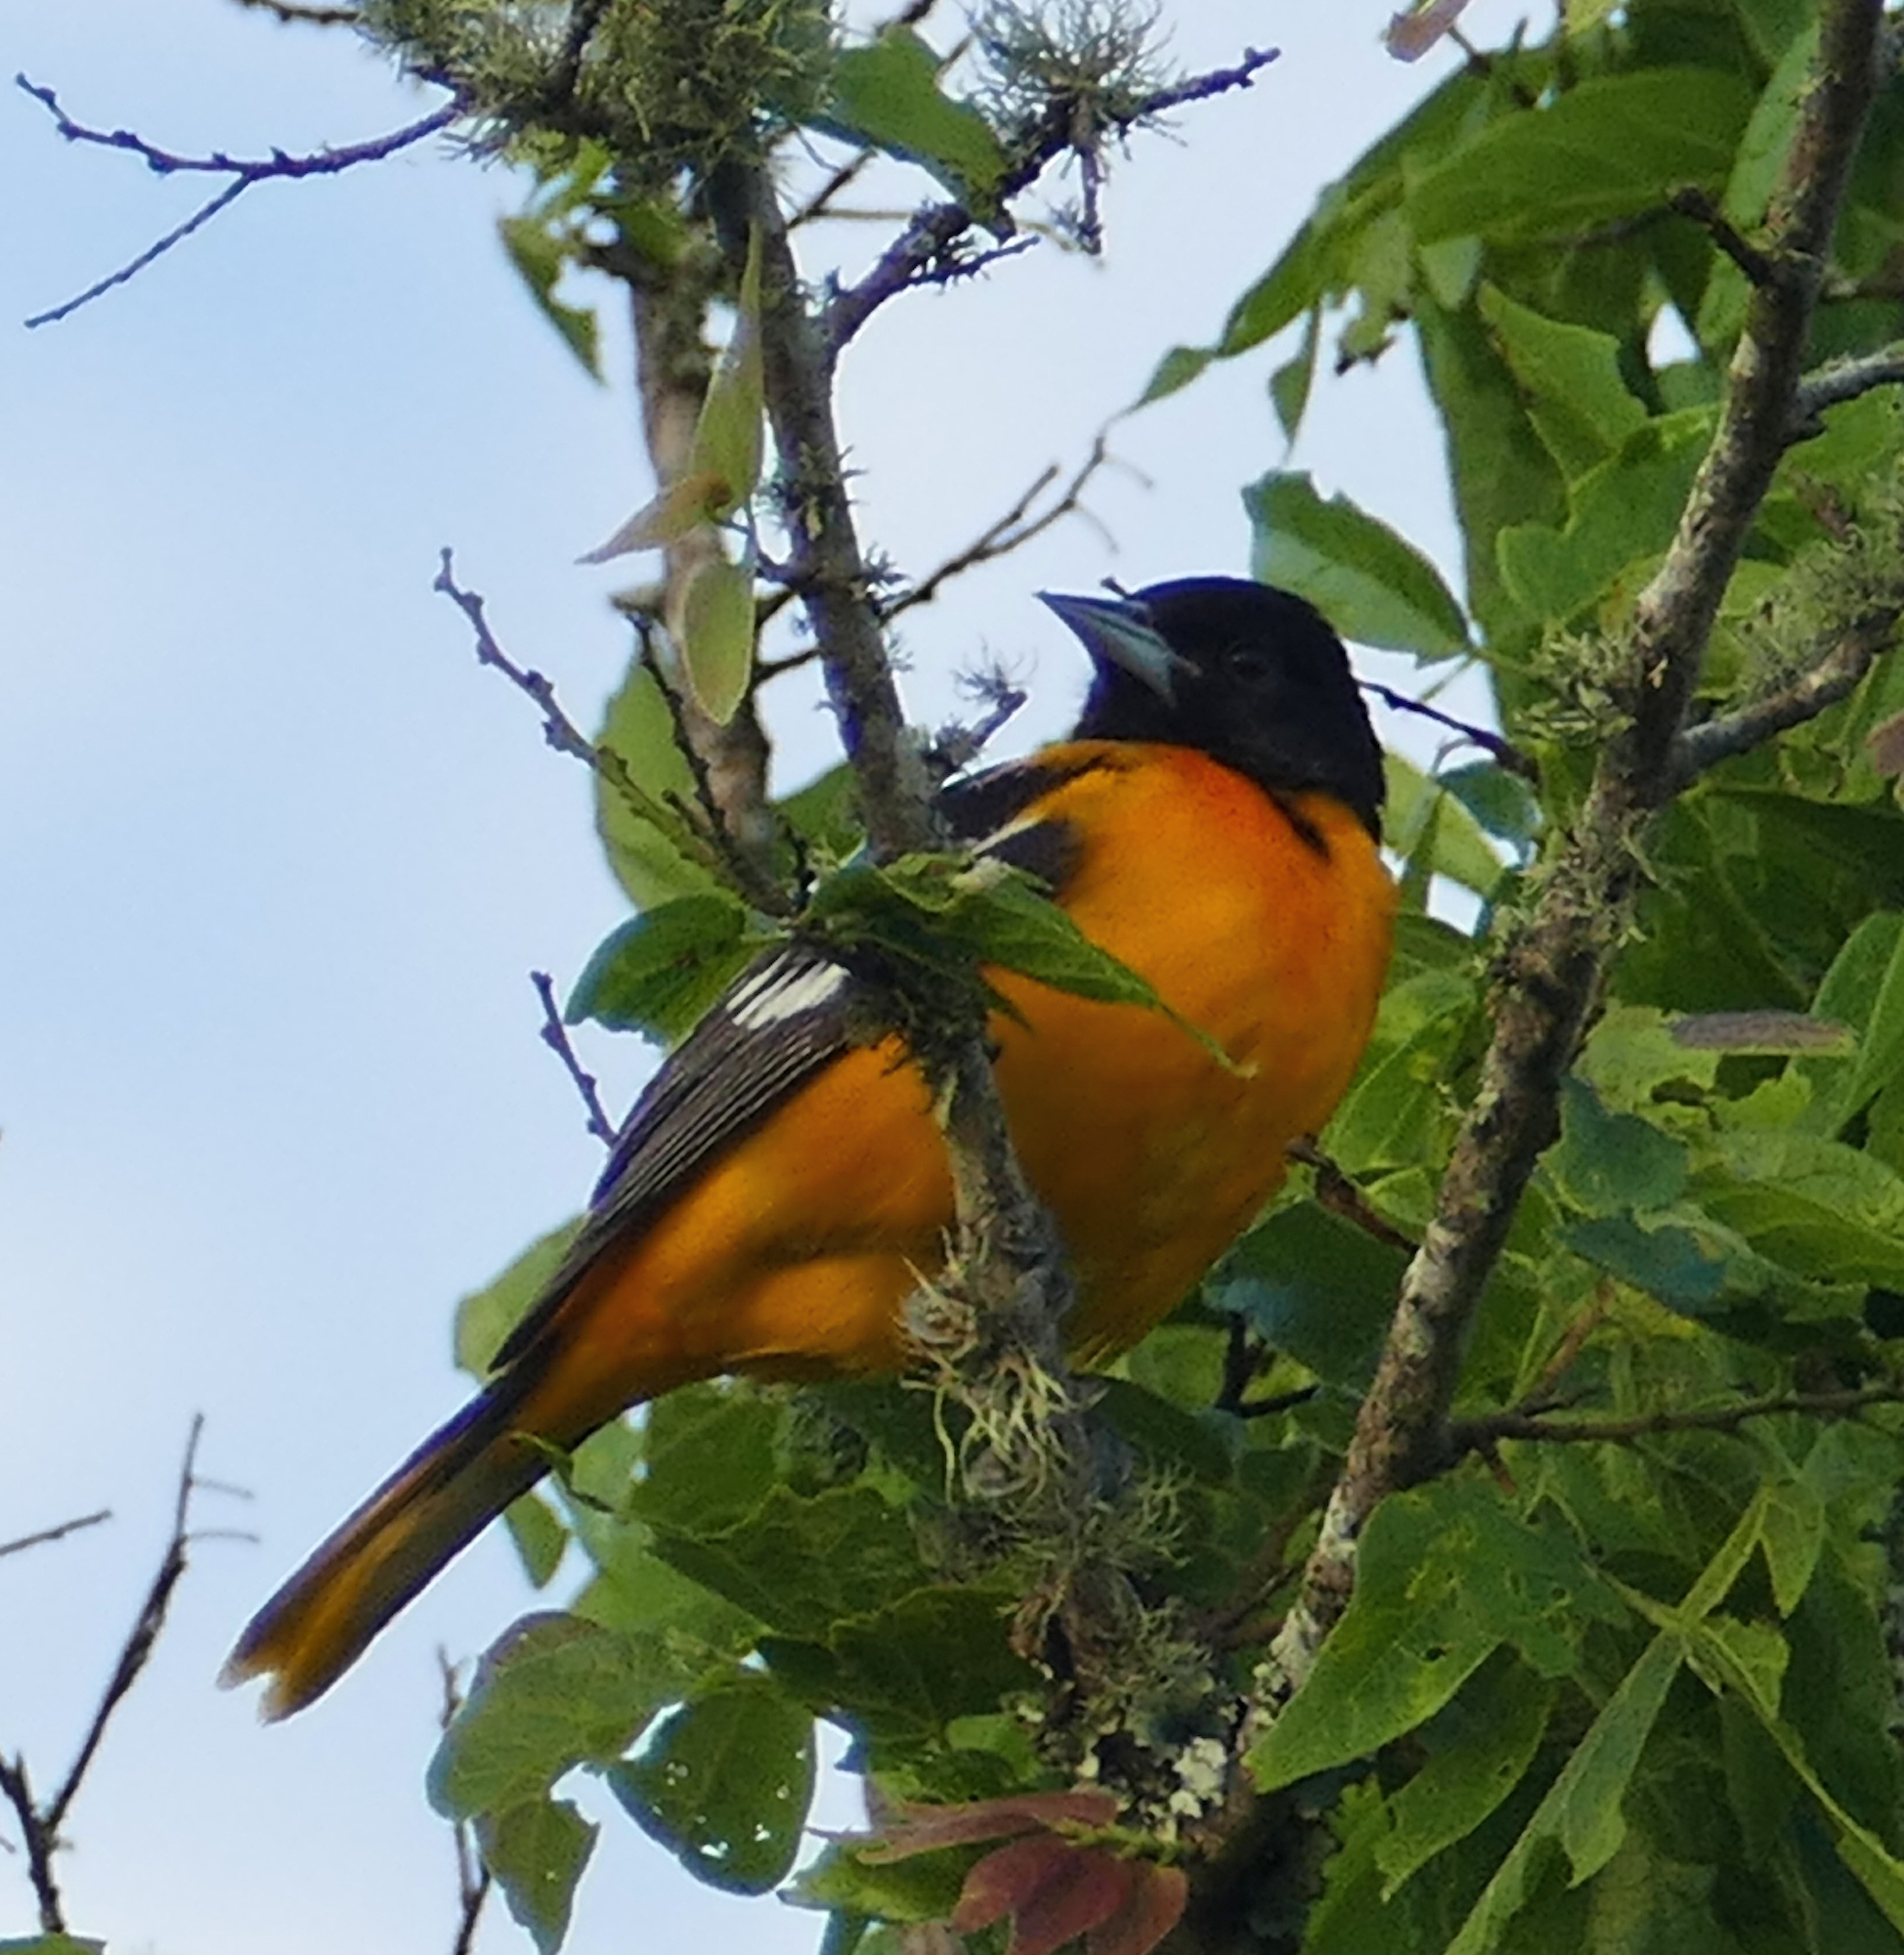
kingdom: Animalia
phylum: Chordata
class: Aves
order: Passeriformes
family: Icteridae
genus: Icterus
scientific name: Icterus galbula
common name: Baltimore oriole
